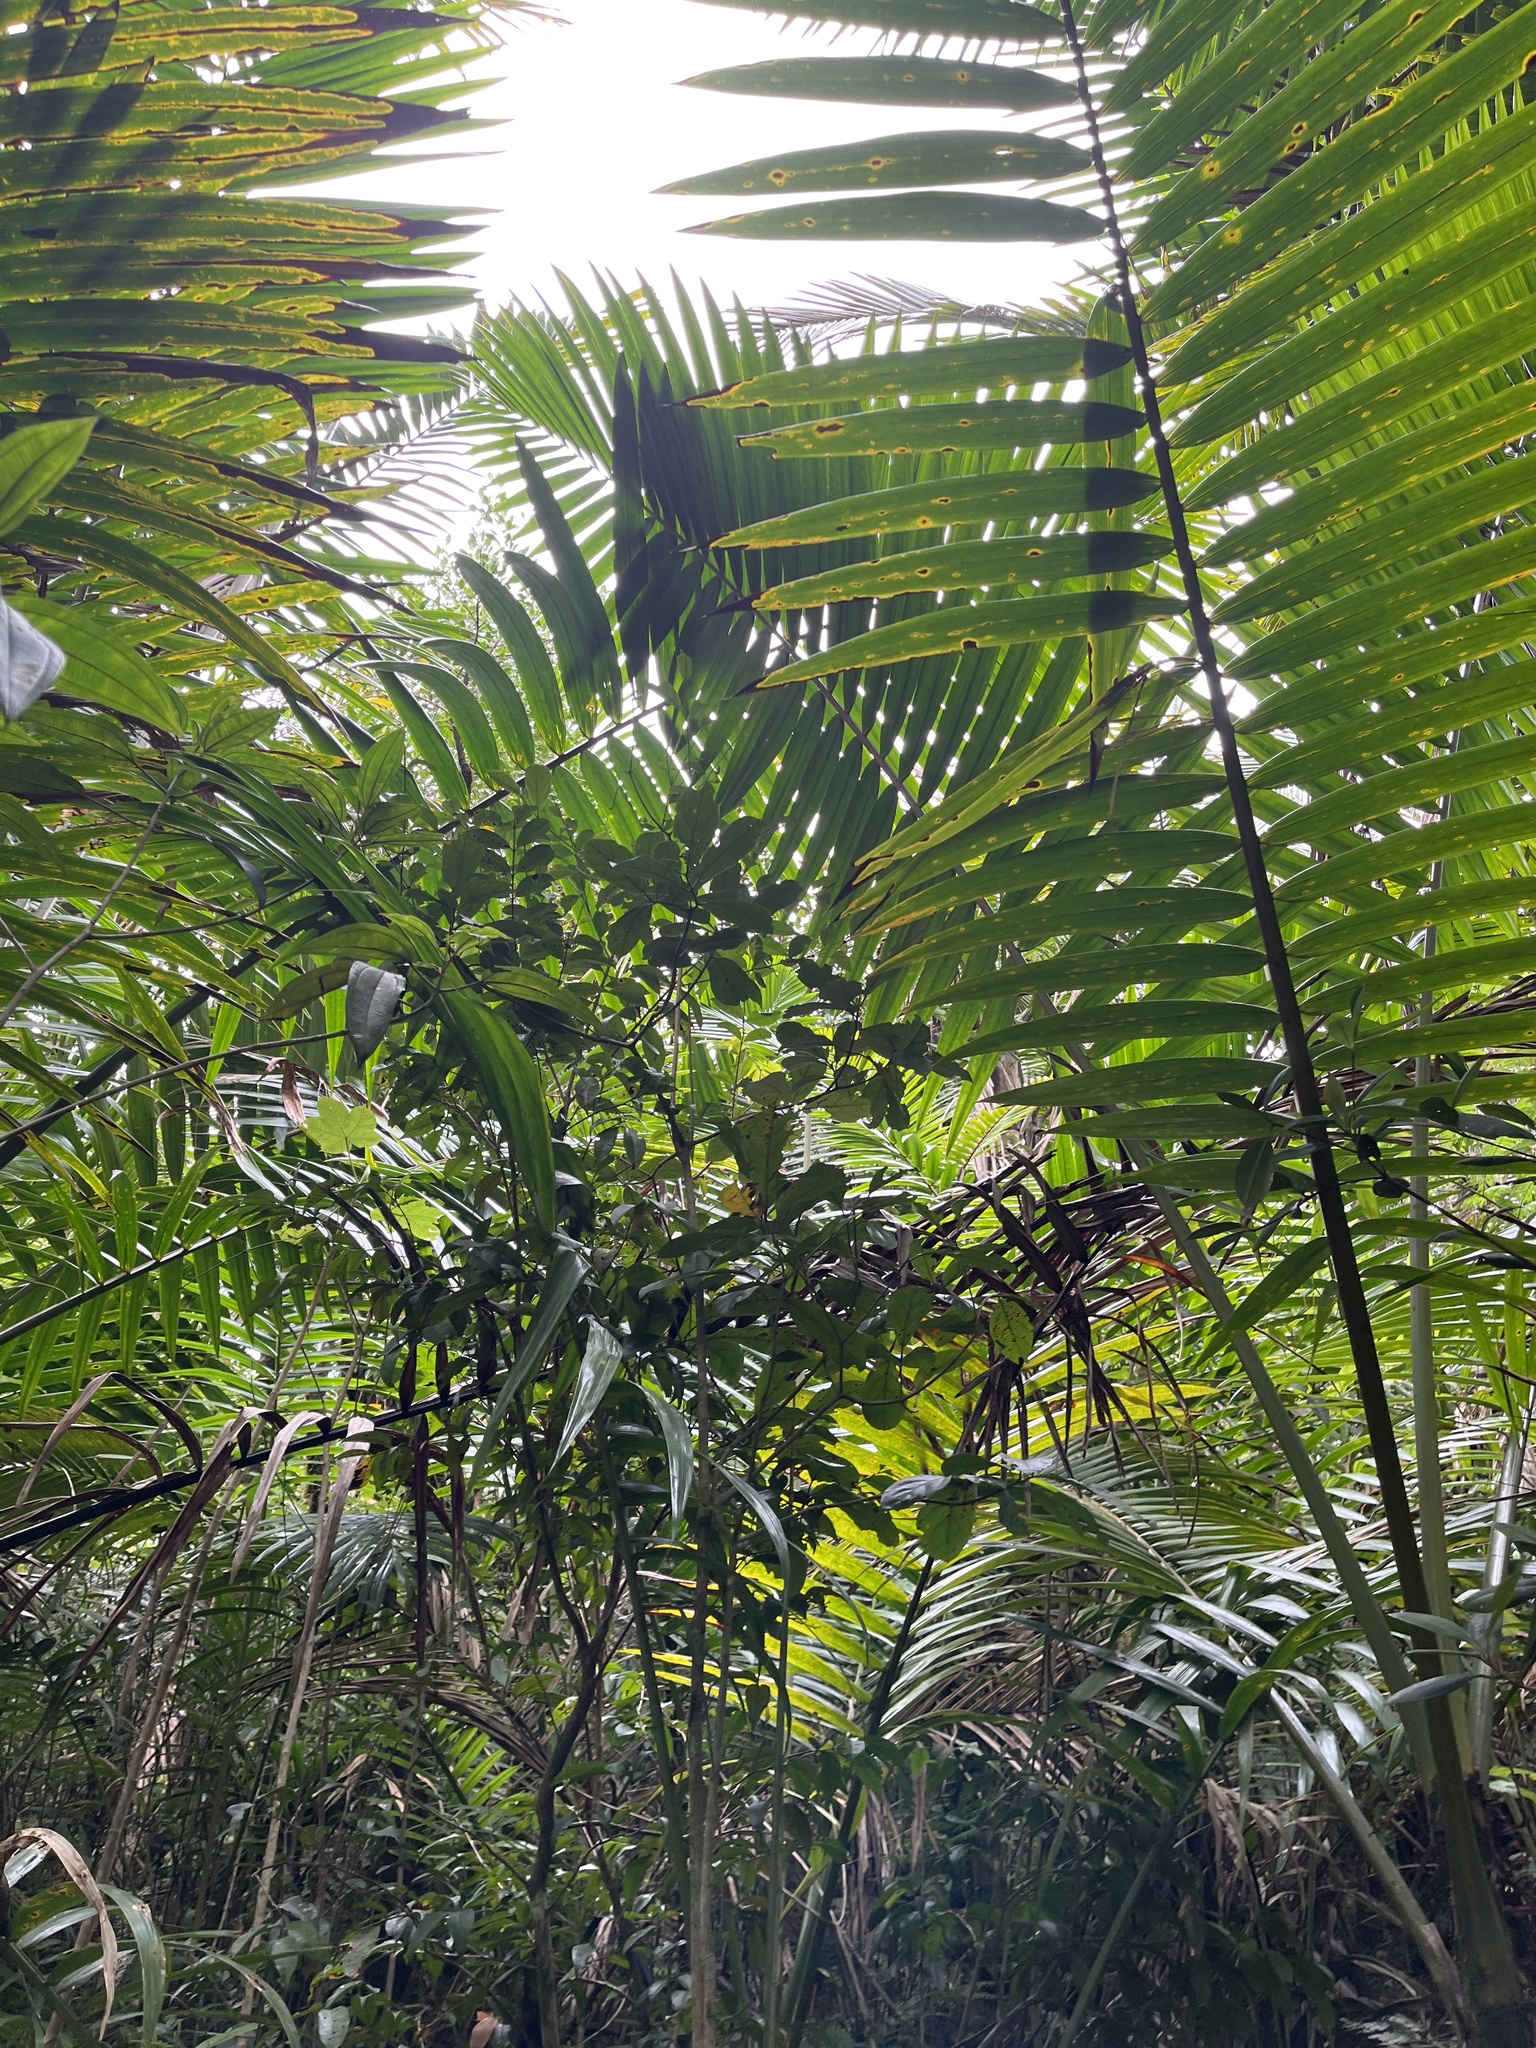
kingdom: Plantae
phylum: Tracheophyta
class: Liliopsida
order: Arecales
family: Arecaceae
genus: Prestoea
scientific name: Prestoea acuminata
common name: Sierran palm
